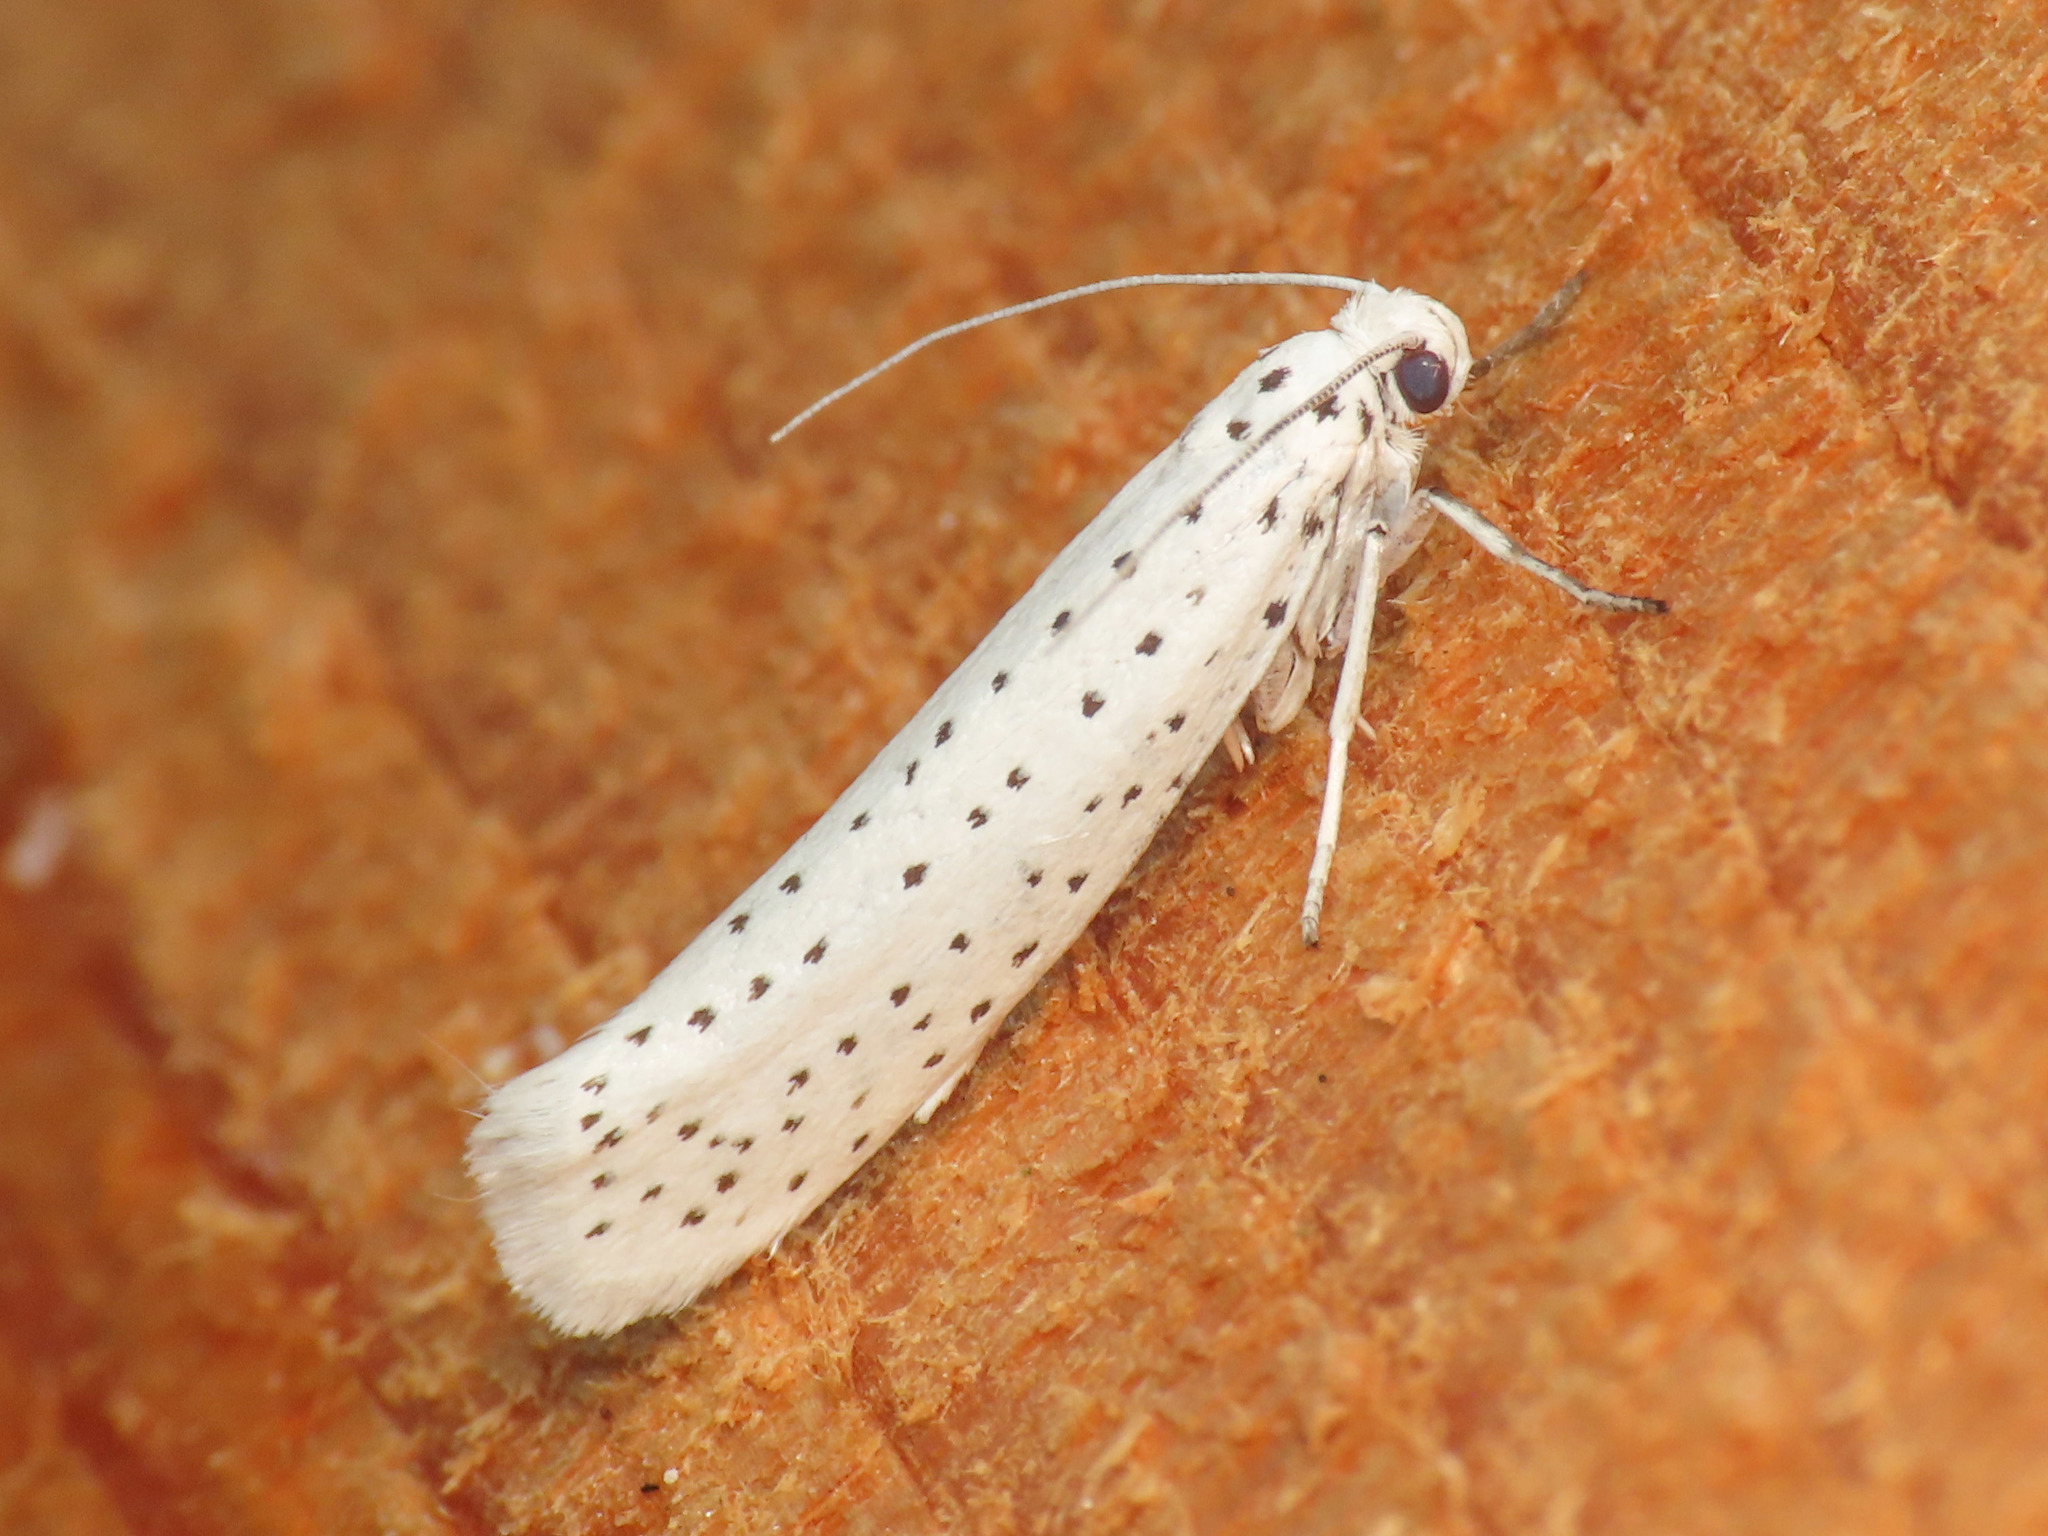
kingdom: Animalia
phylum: Arthropoda
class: Insecta
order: Lepidoptera
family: Yponomeutidae
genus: Yponomeuta
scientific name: Yponomeuta evonymella
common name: Bird-cherry ermine
